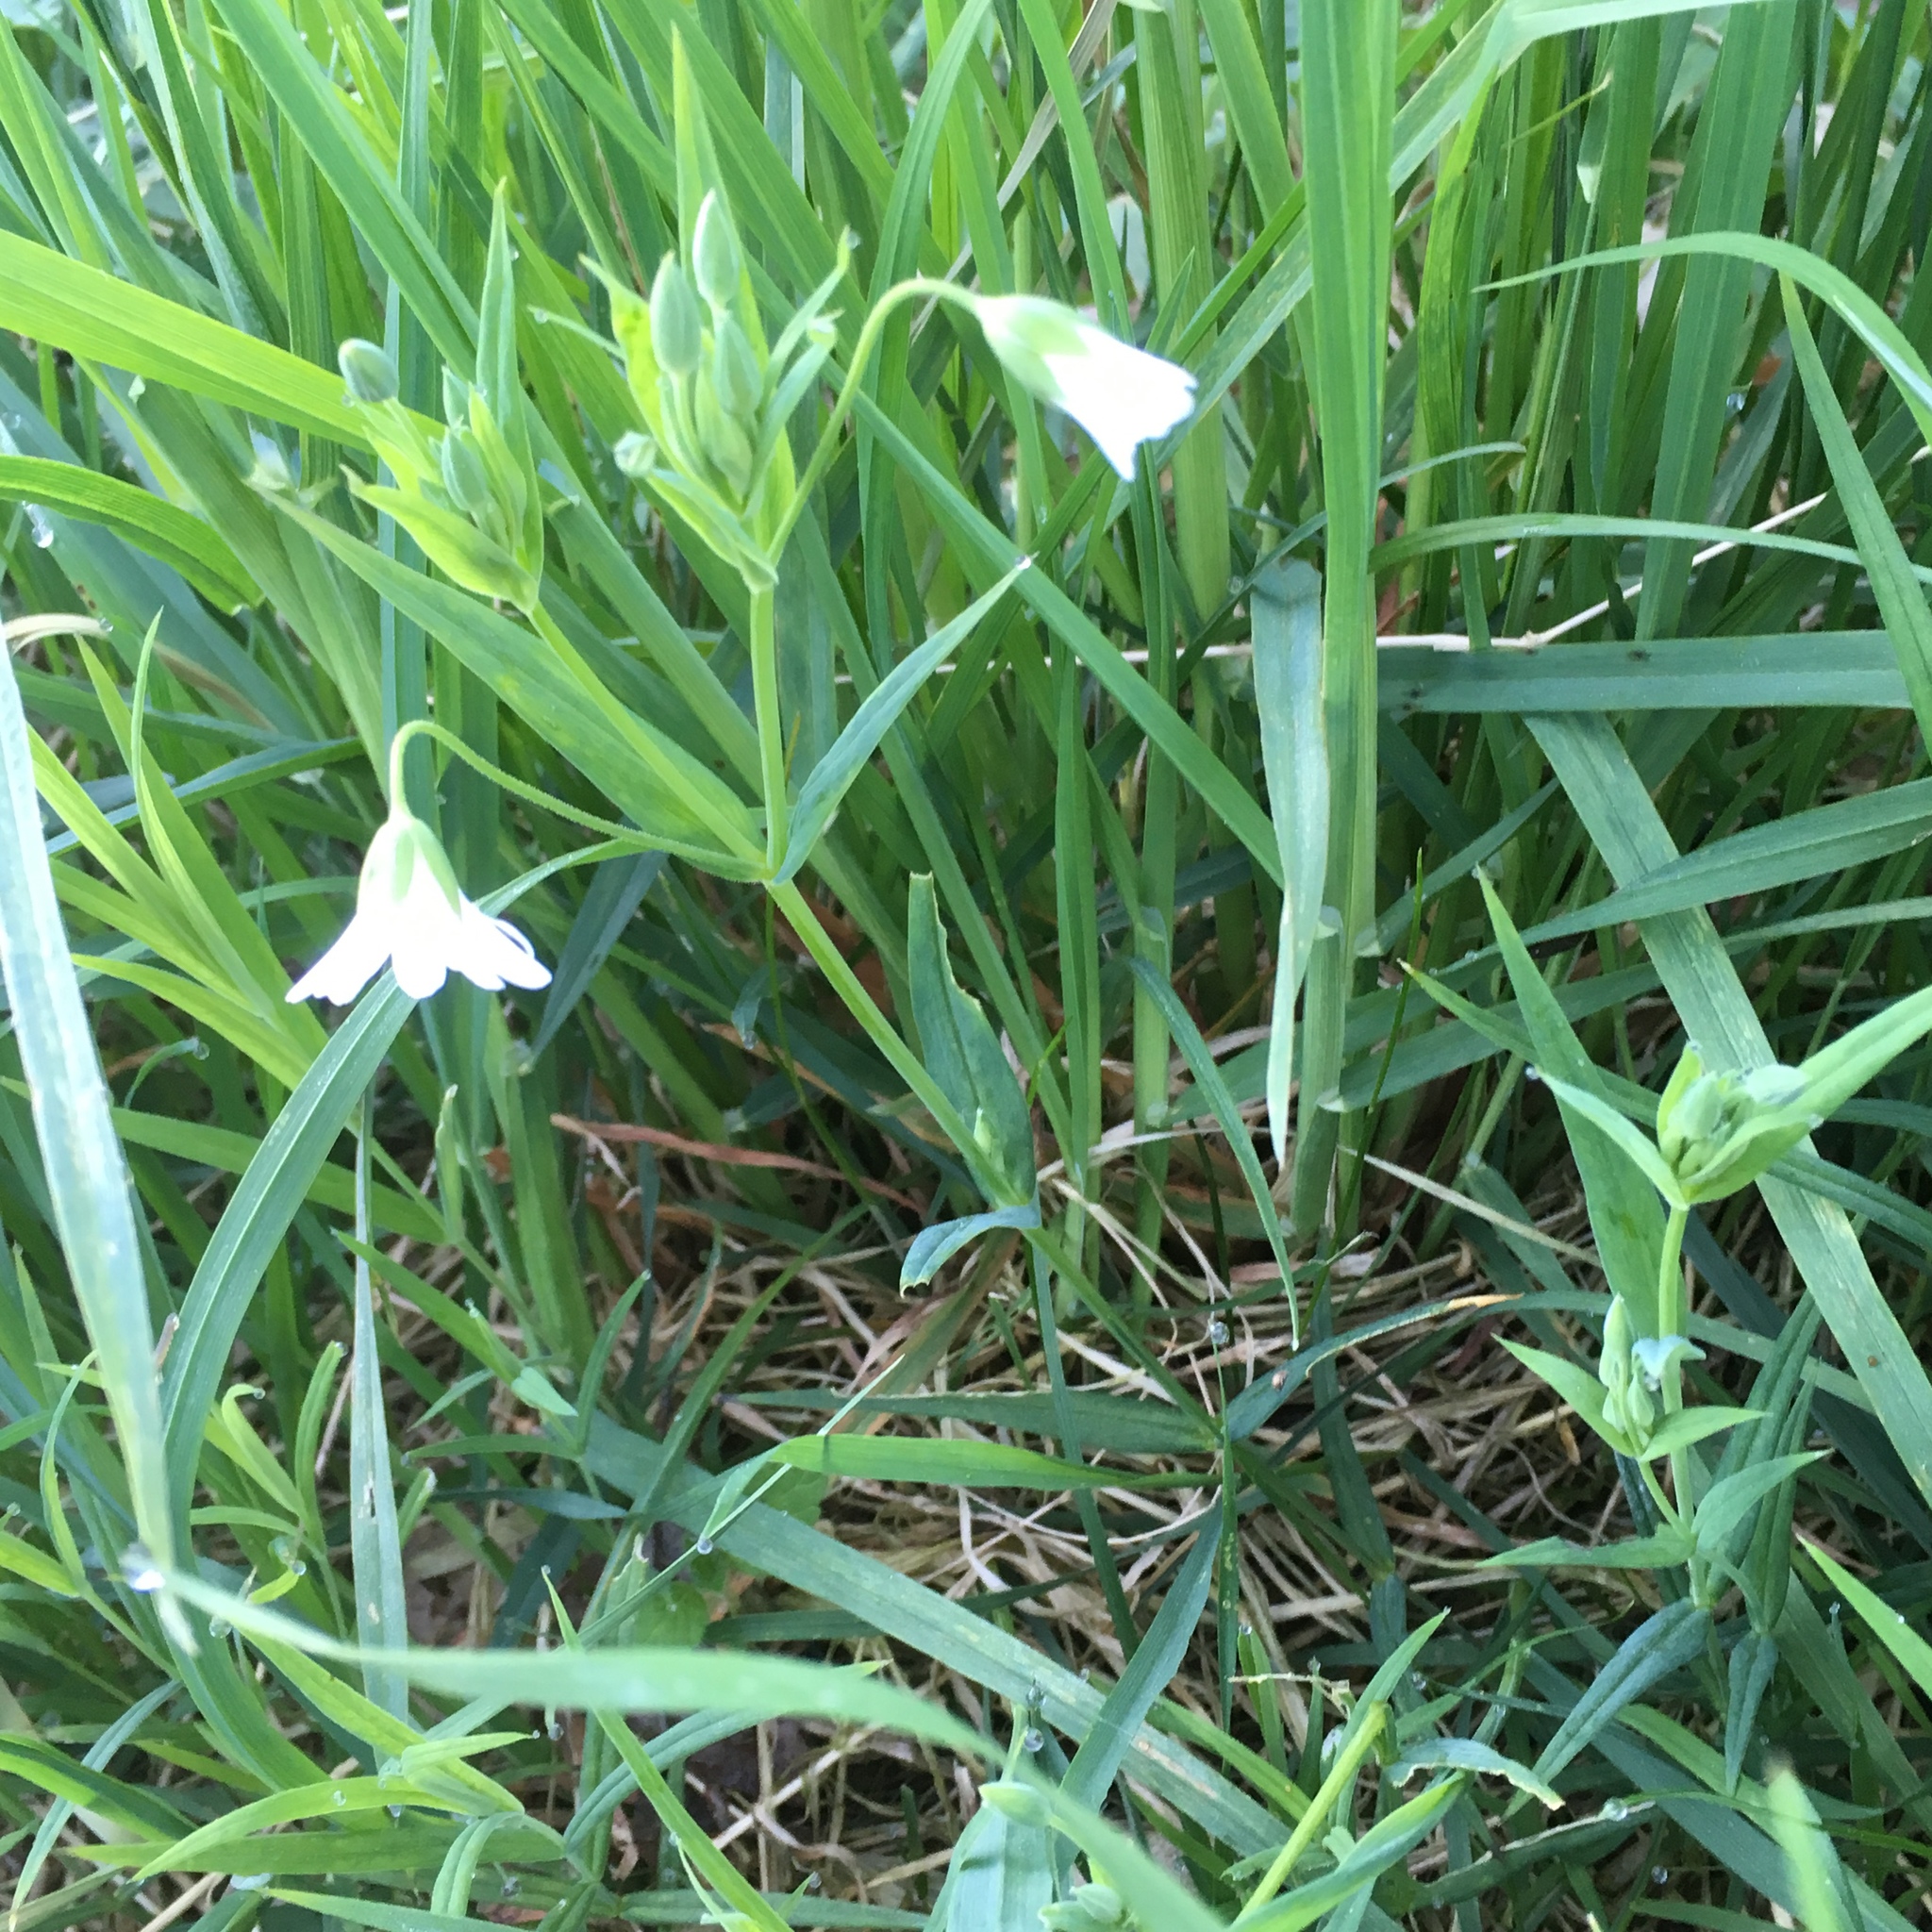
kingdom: Plantae
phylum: Tracheophyta
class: Magnoliopsida
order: Caryophyllales
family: Caryophyllaceae
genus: Rabelera
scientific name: Rabelera holostea
